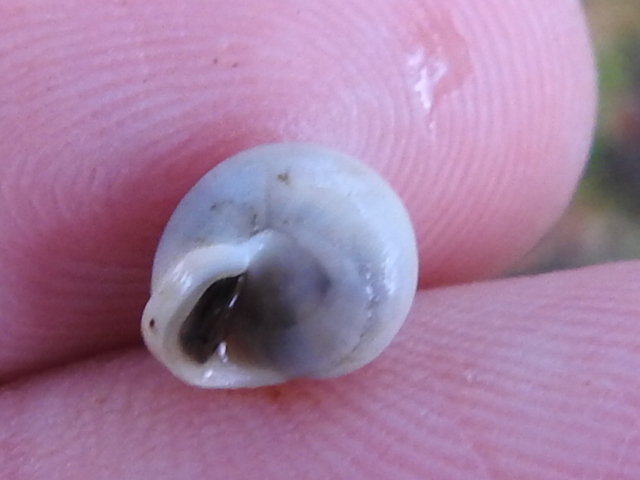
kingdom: Animalia
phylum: Mollusca
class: Gastropoda
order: Cycloneritida
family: Helicinidae
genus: Helicina
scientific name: Helicina orbiculata
